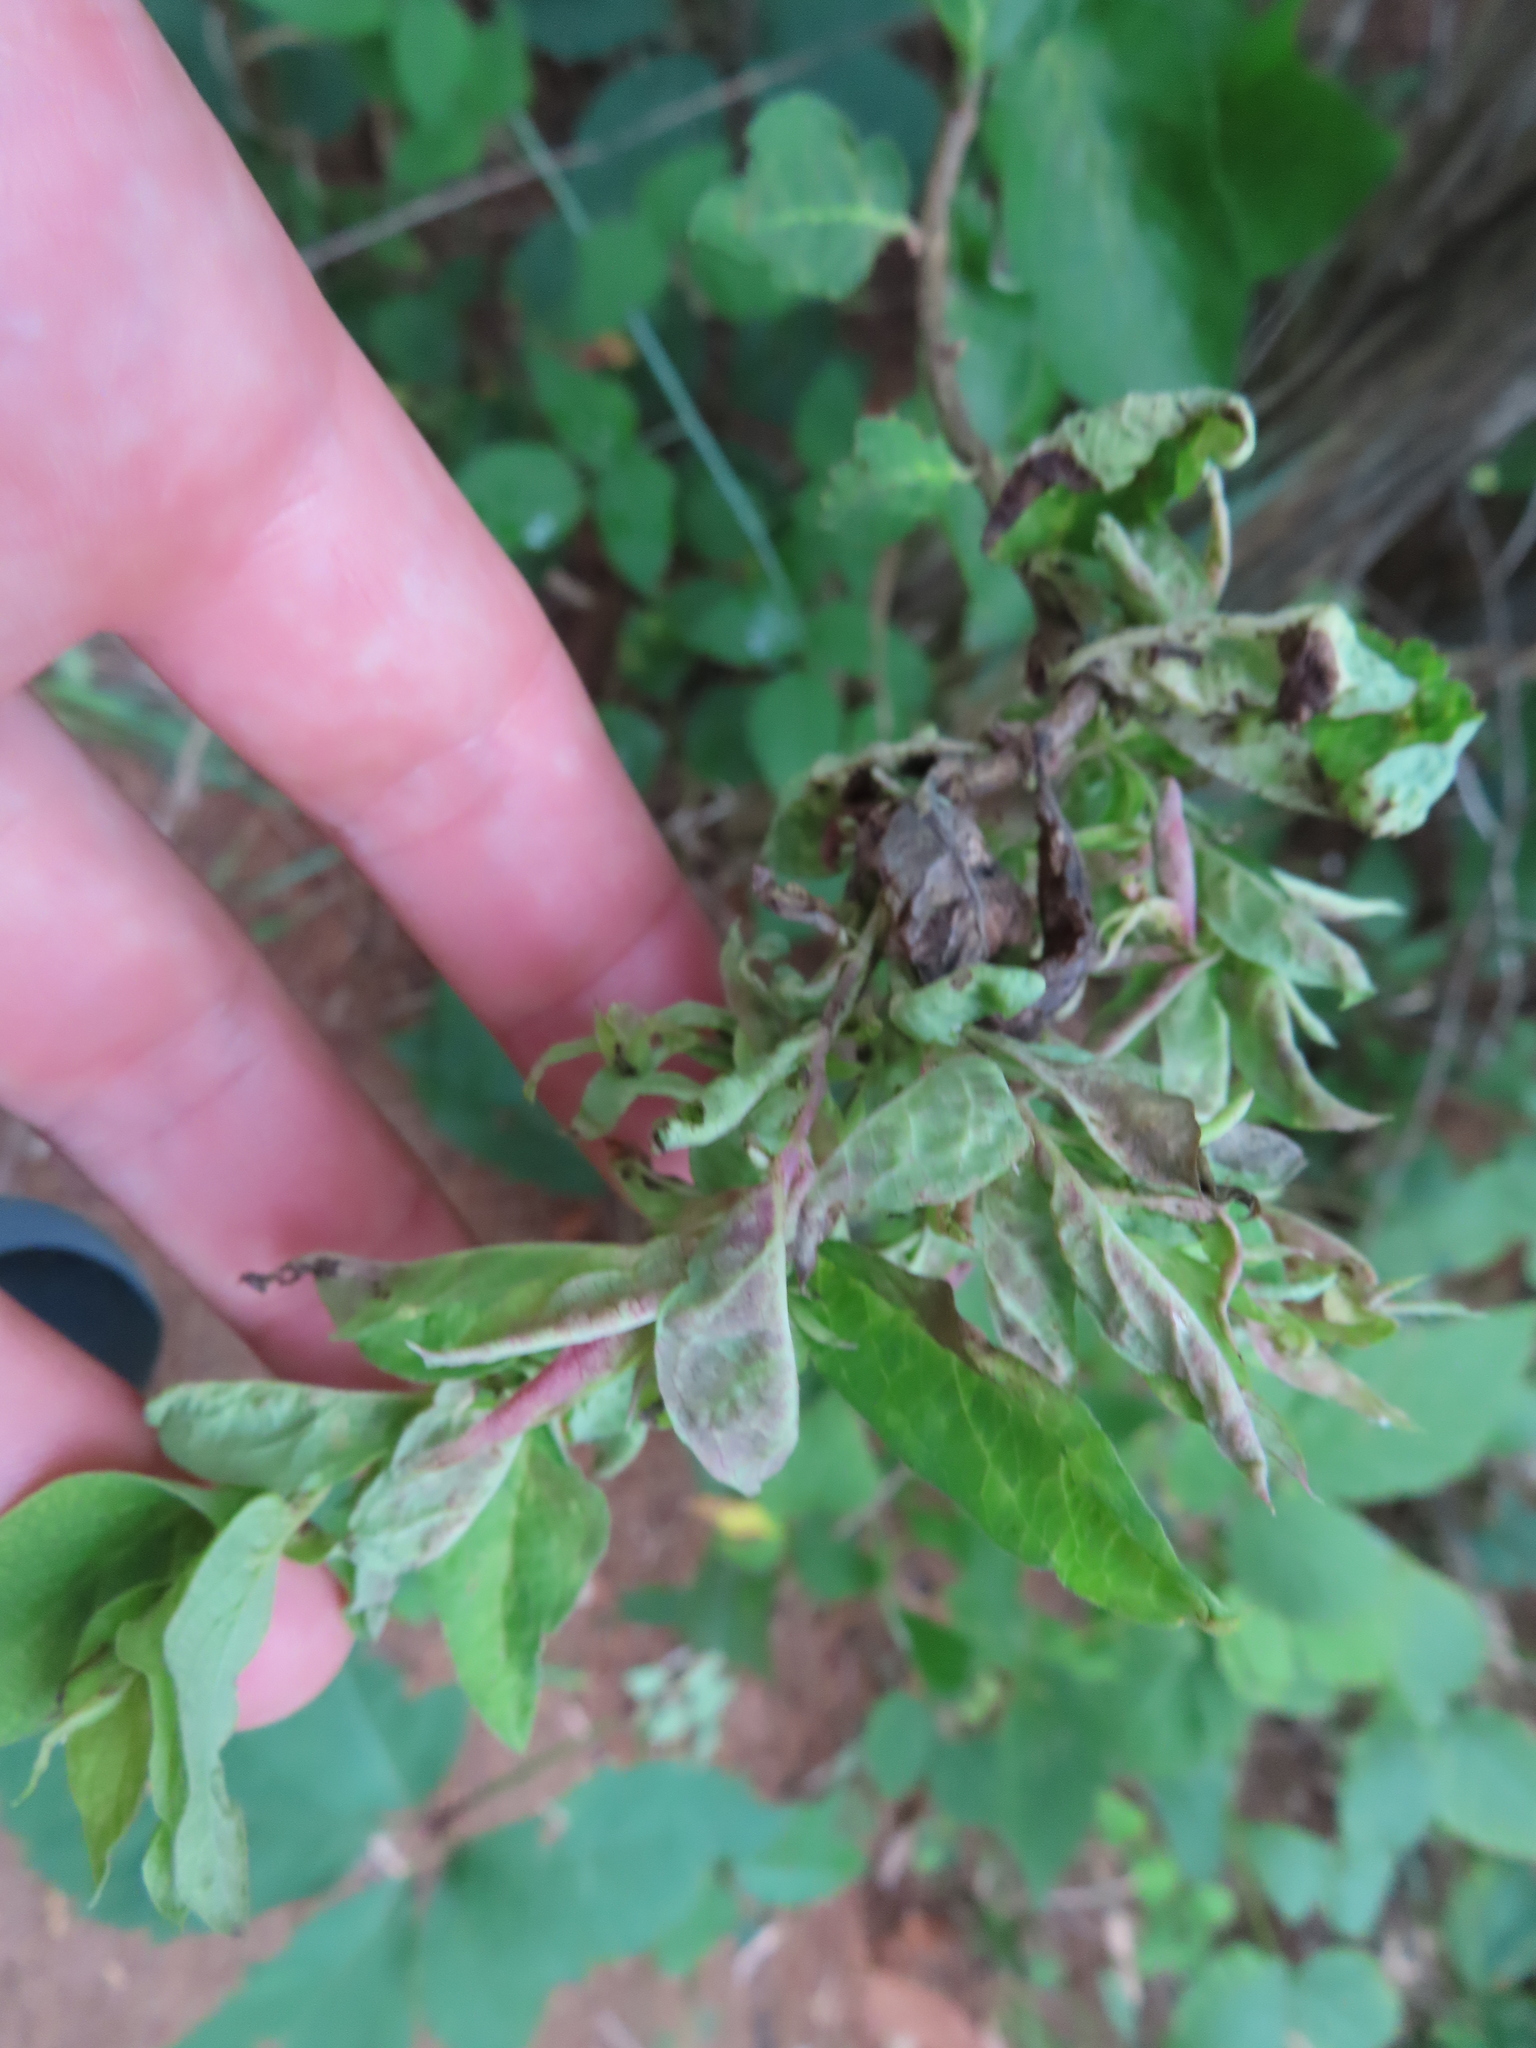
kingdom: Animalia
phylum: Arthropoda
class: Insecta
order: Hemiptera
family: Aphididae
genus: Hyadaphis
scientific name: Hyadaphis tataricae
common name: Honeysuckle witches' broom aphid
